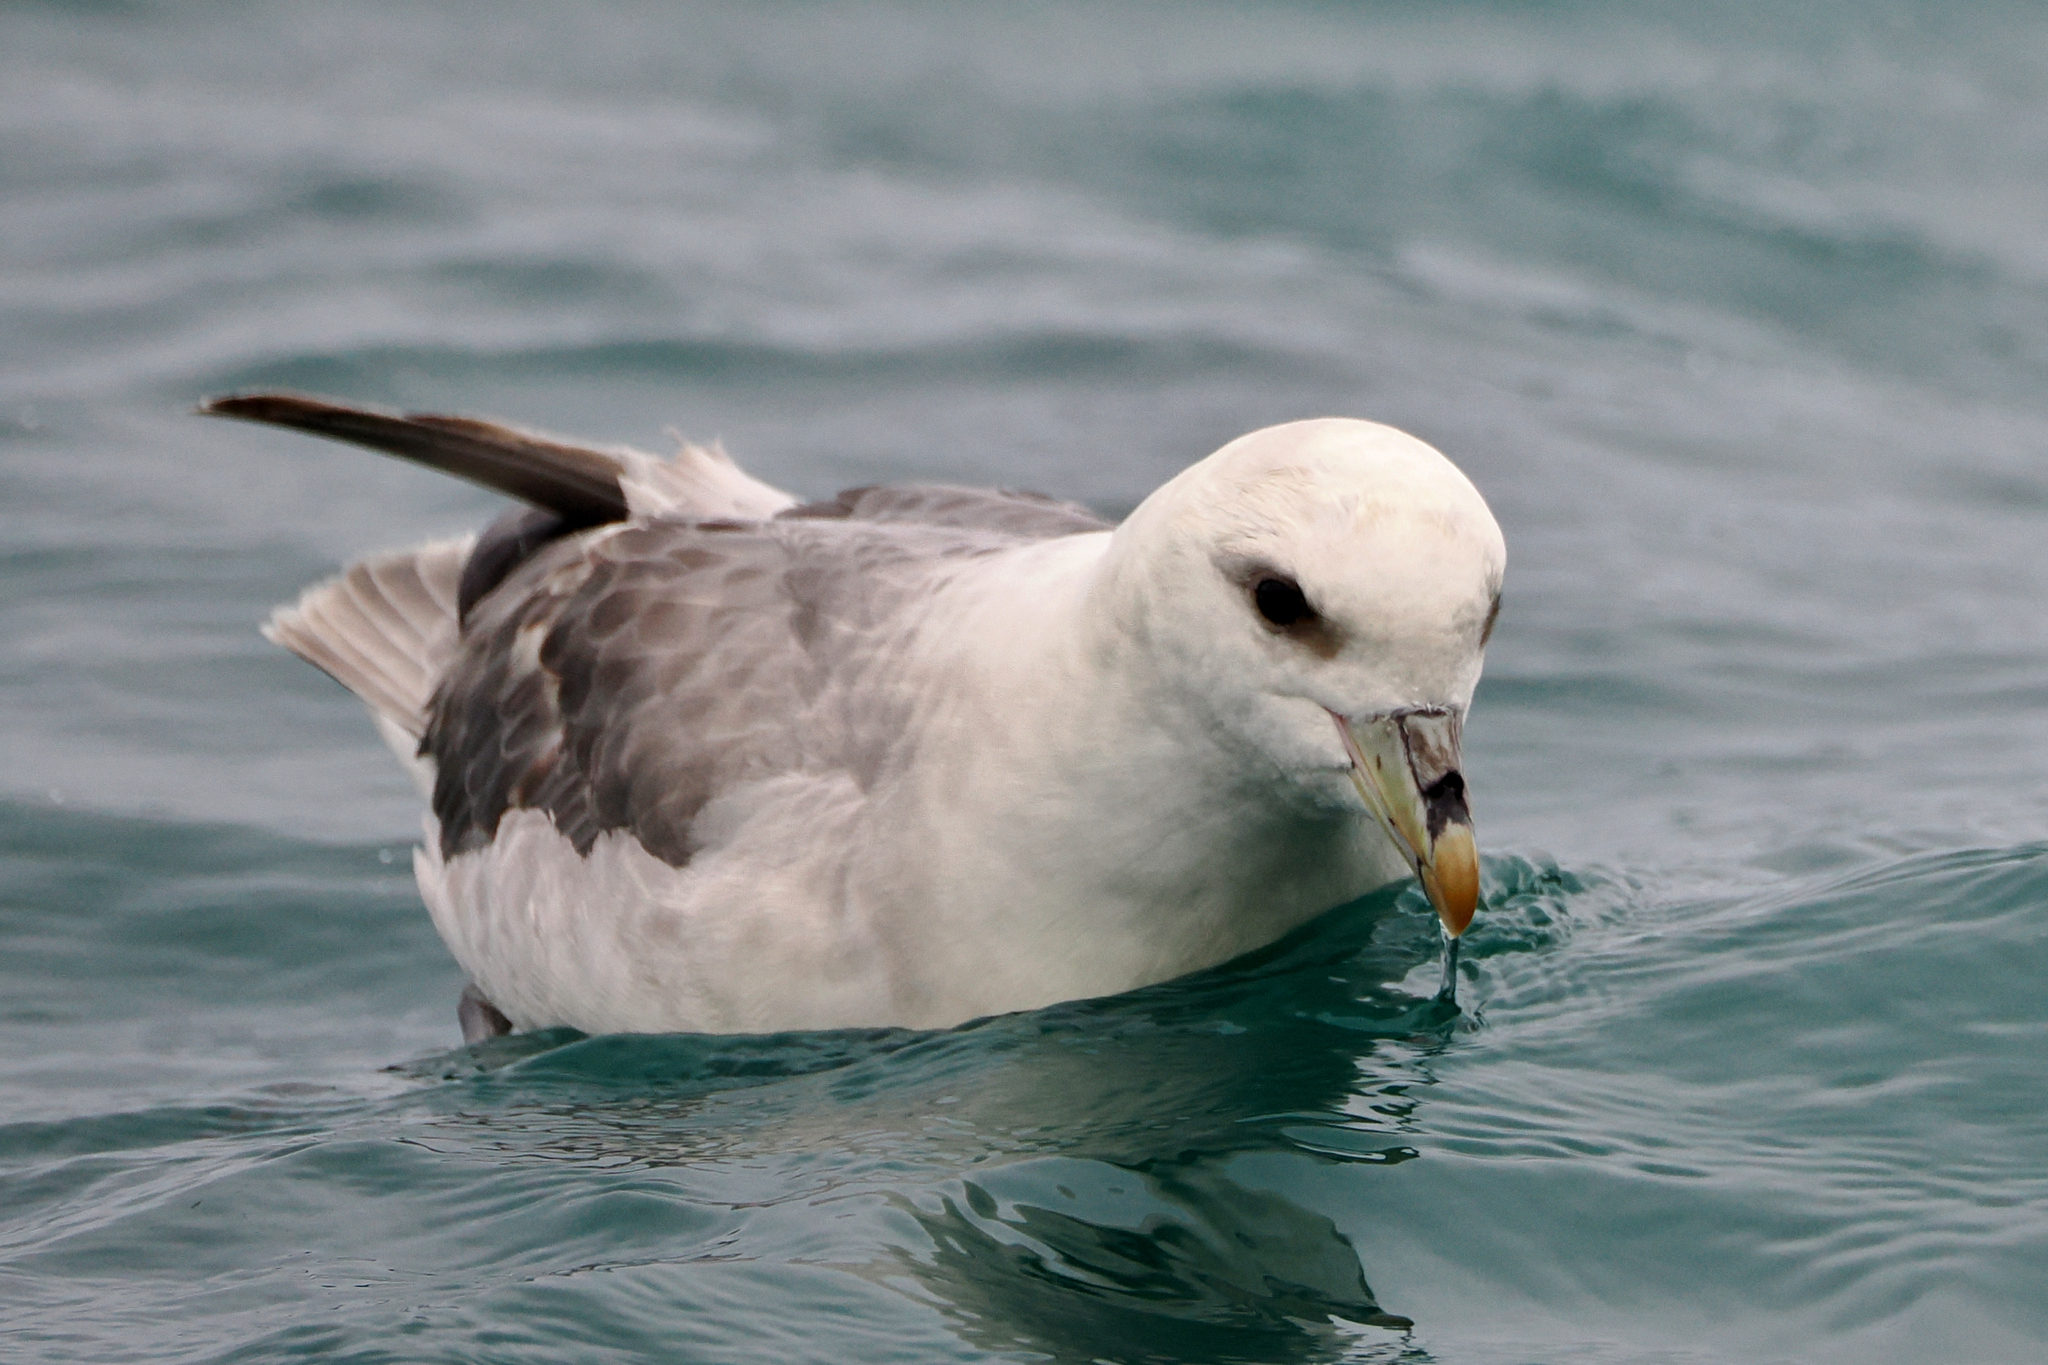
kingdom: Animalia
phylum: Chordata
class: Aves
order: Procellariiformes
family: Procellariidae
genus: Fulmarus
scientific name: Fulmarus glacialis
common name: Northern fulmar
